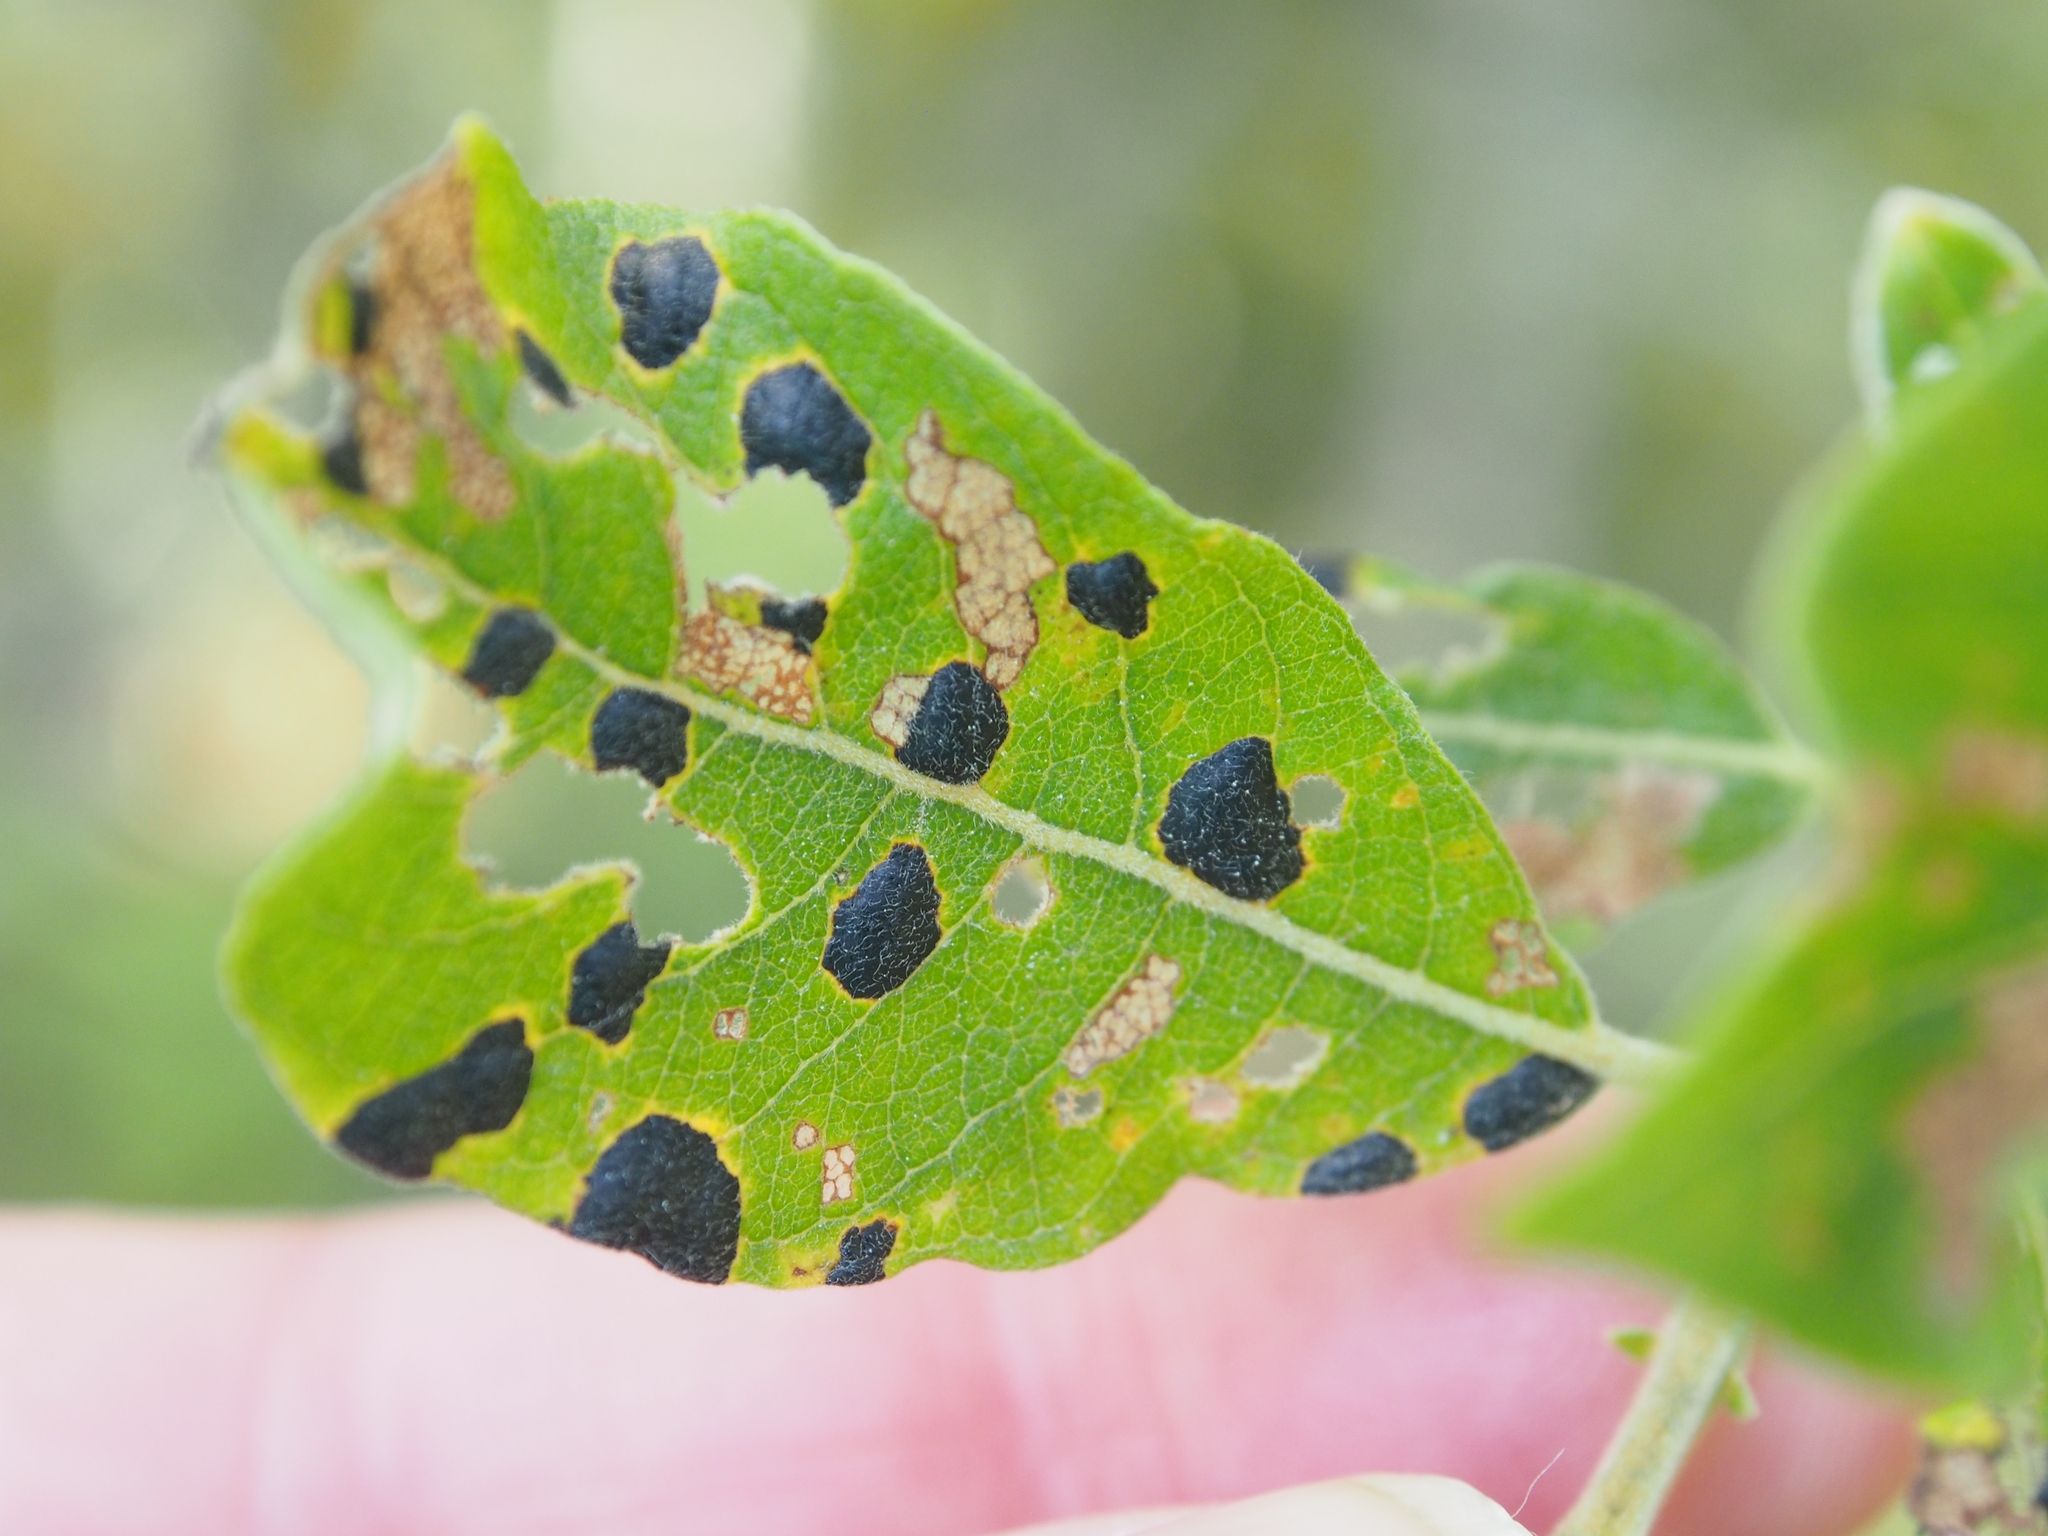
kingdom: Fungi
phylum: Ascomycota
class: Leotiomycetes
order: Rhytismatales
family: Rhytismataceae
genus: Rhytisma
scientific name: Rhytisma salicinum
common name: Willow tarspot
